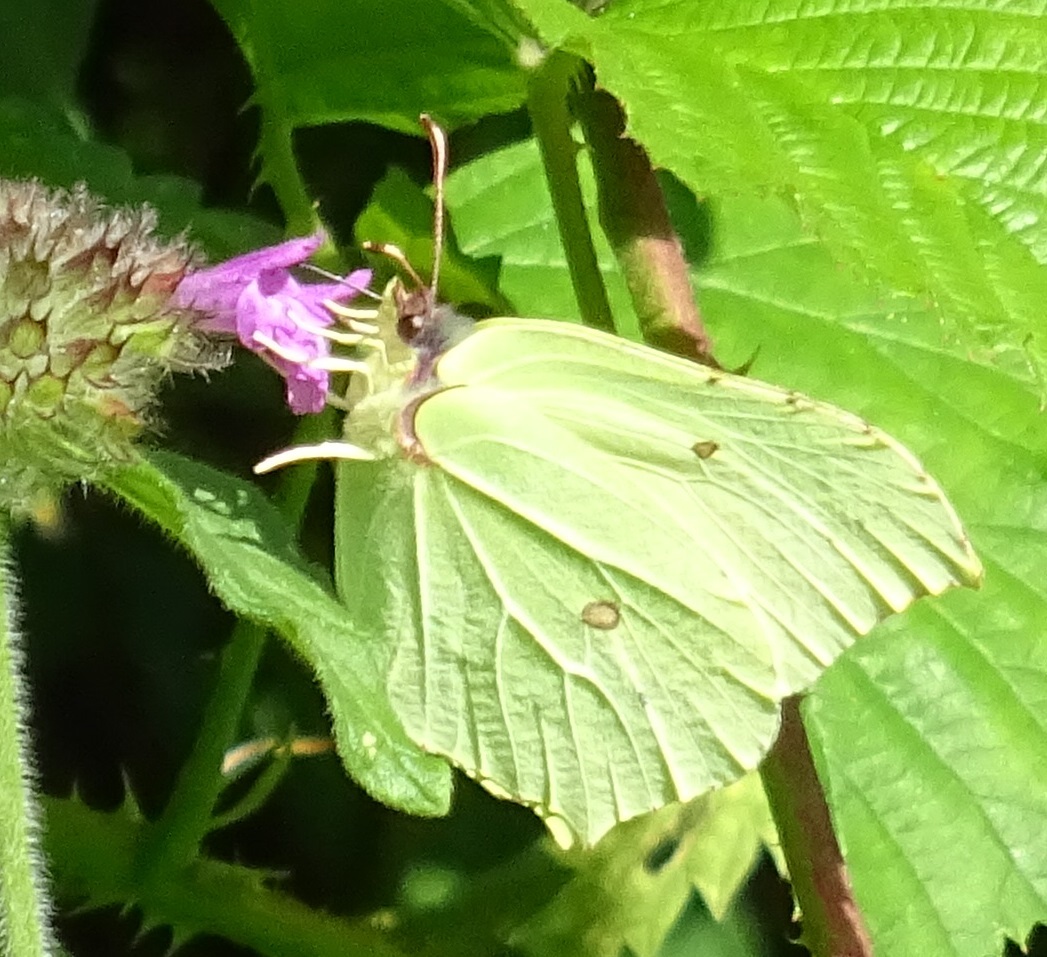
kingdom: Animalia
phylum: Arthropoda
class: Insecta
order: Lepidoptera
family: Pieridae
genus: Gonepteryx
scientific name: Gonepteryx rhamni
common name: Brimstone
